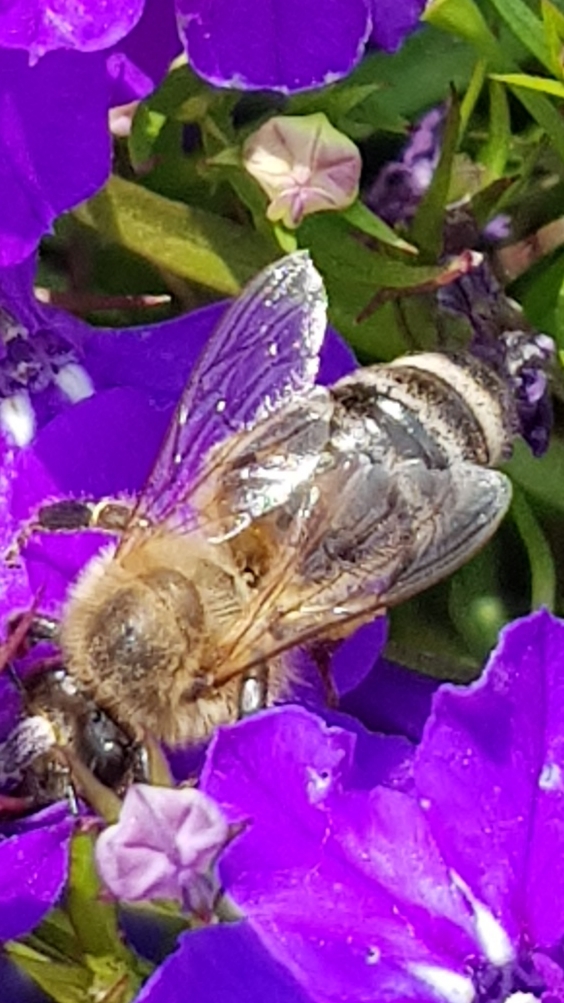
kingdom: Animalia
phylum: Arthropoda
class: Insecta
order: Hymenoptera
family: Apidae
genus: Apis
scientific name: Apis mellifera
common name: Honey bee
